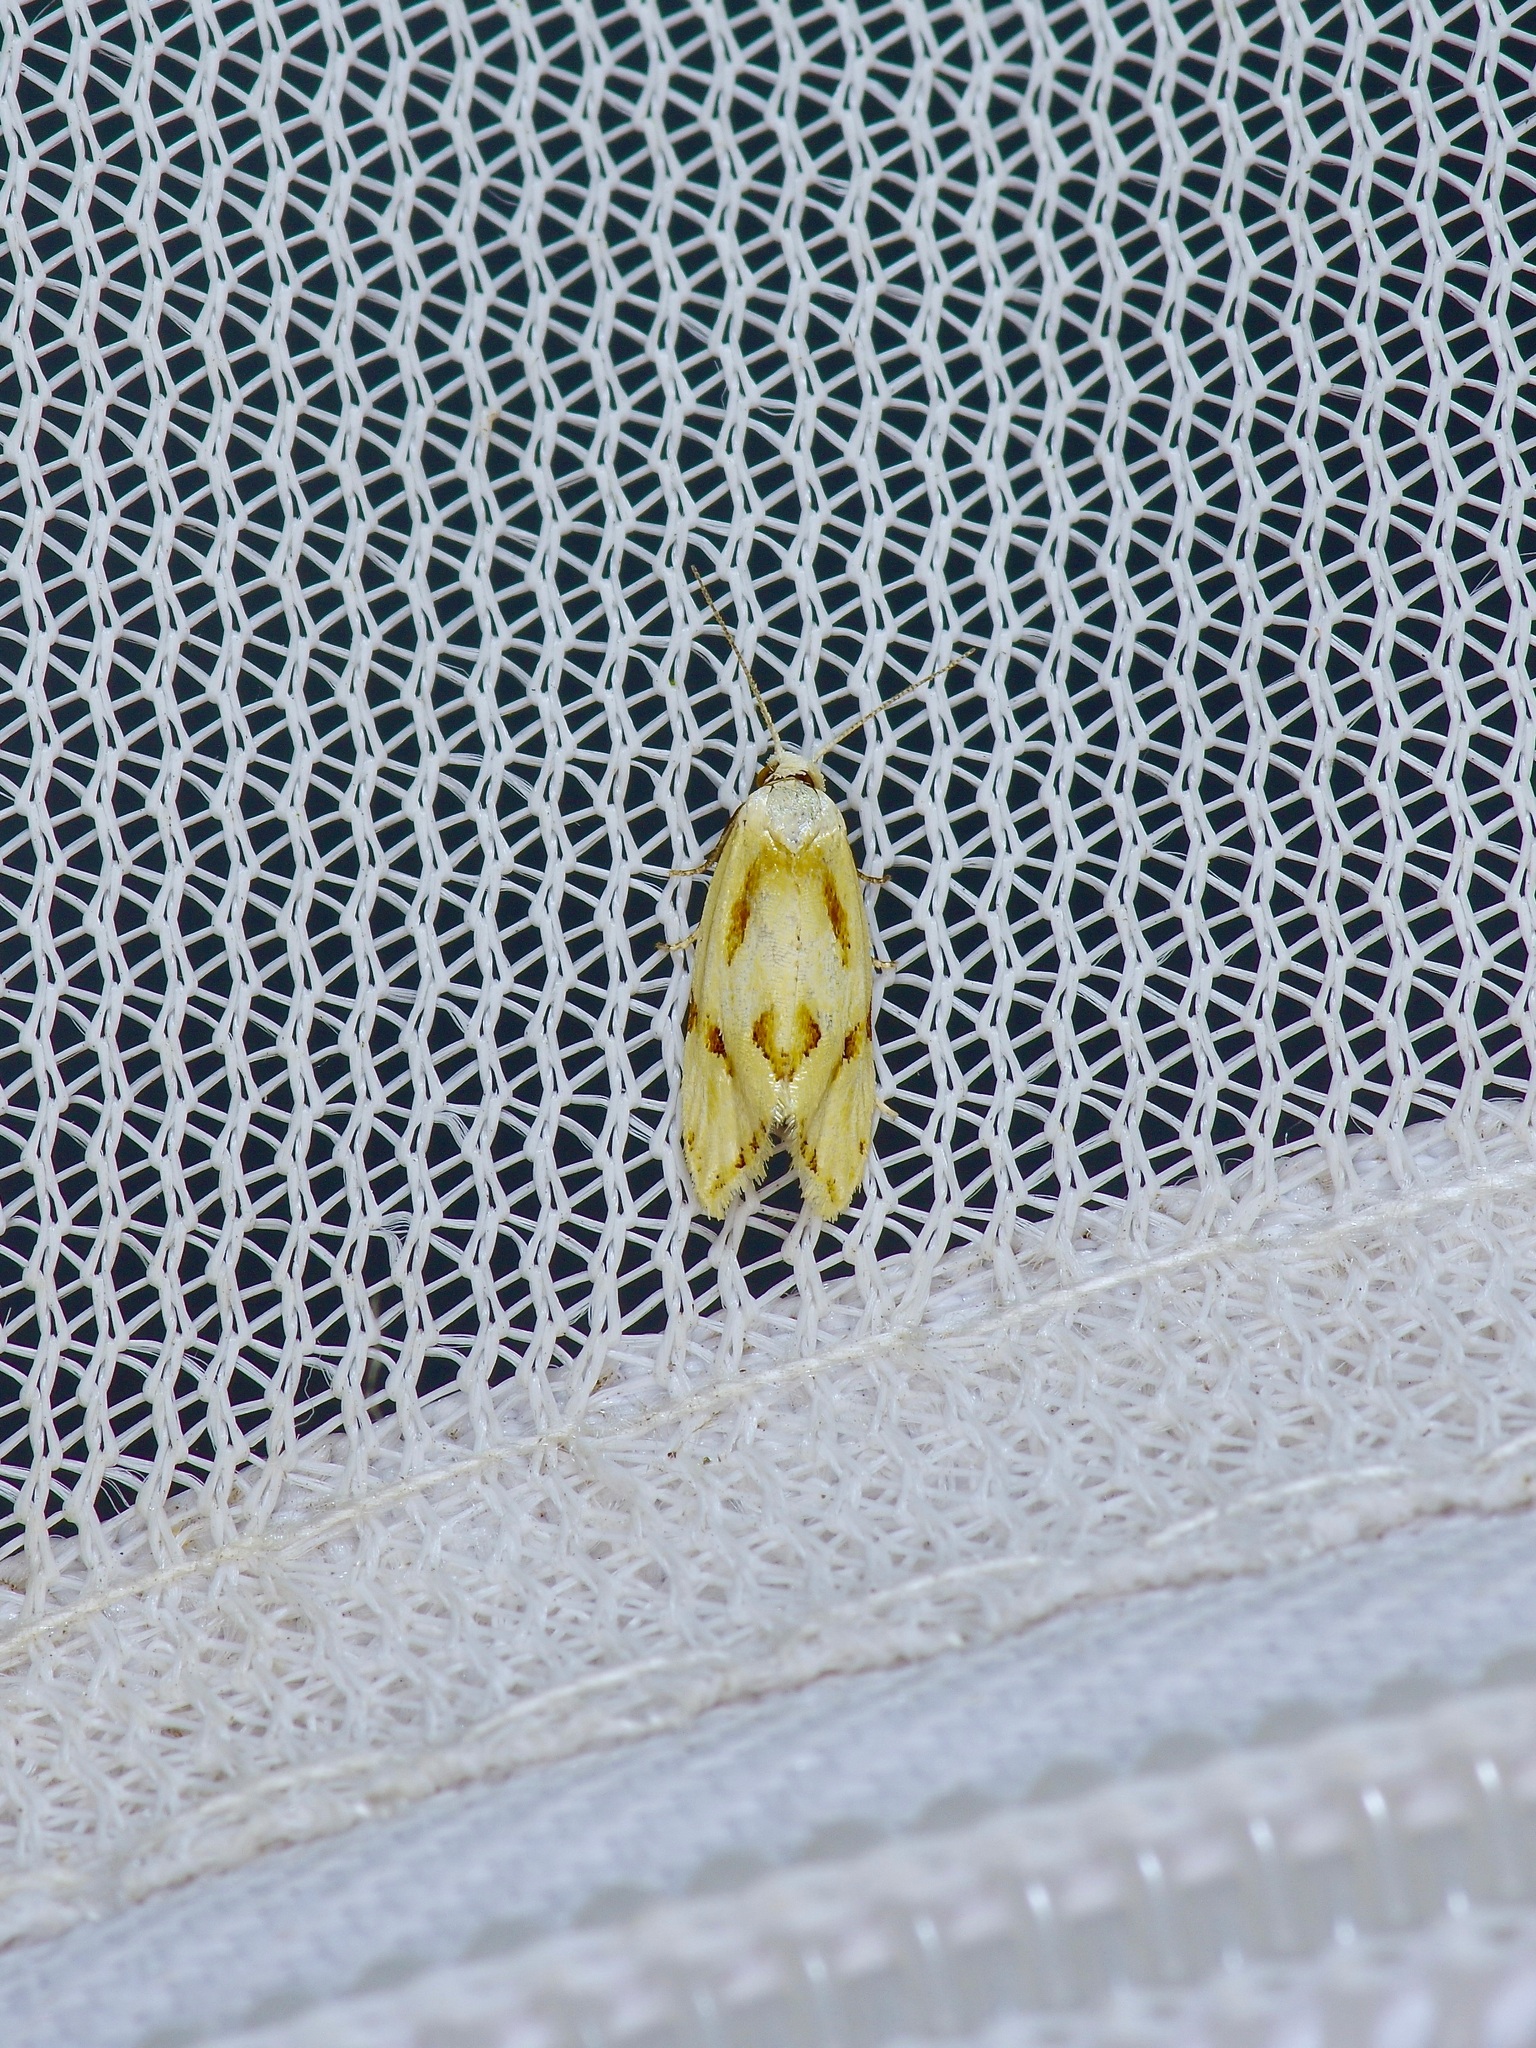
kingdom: Animalia
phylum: Arthropoda
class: Insecta
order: Lepidoptera
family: Tortricidae
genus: Aethes
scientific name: Aethes seriatana
